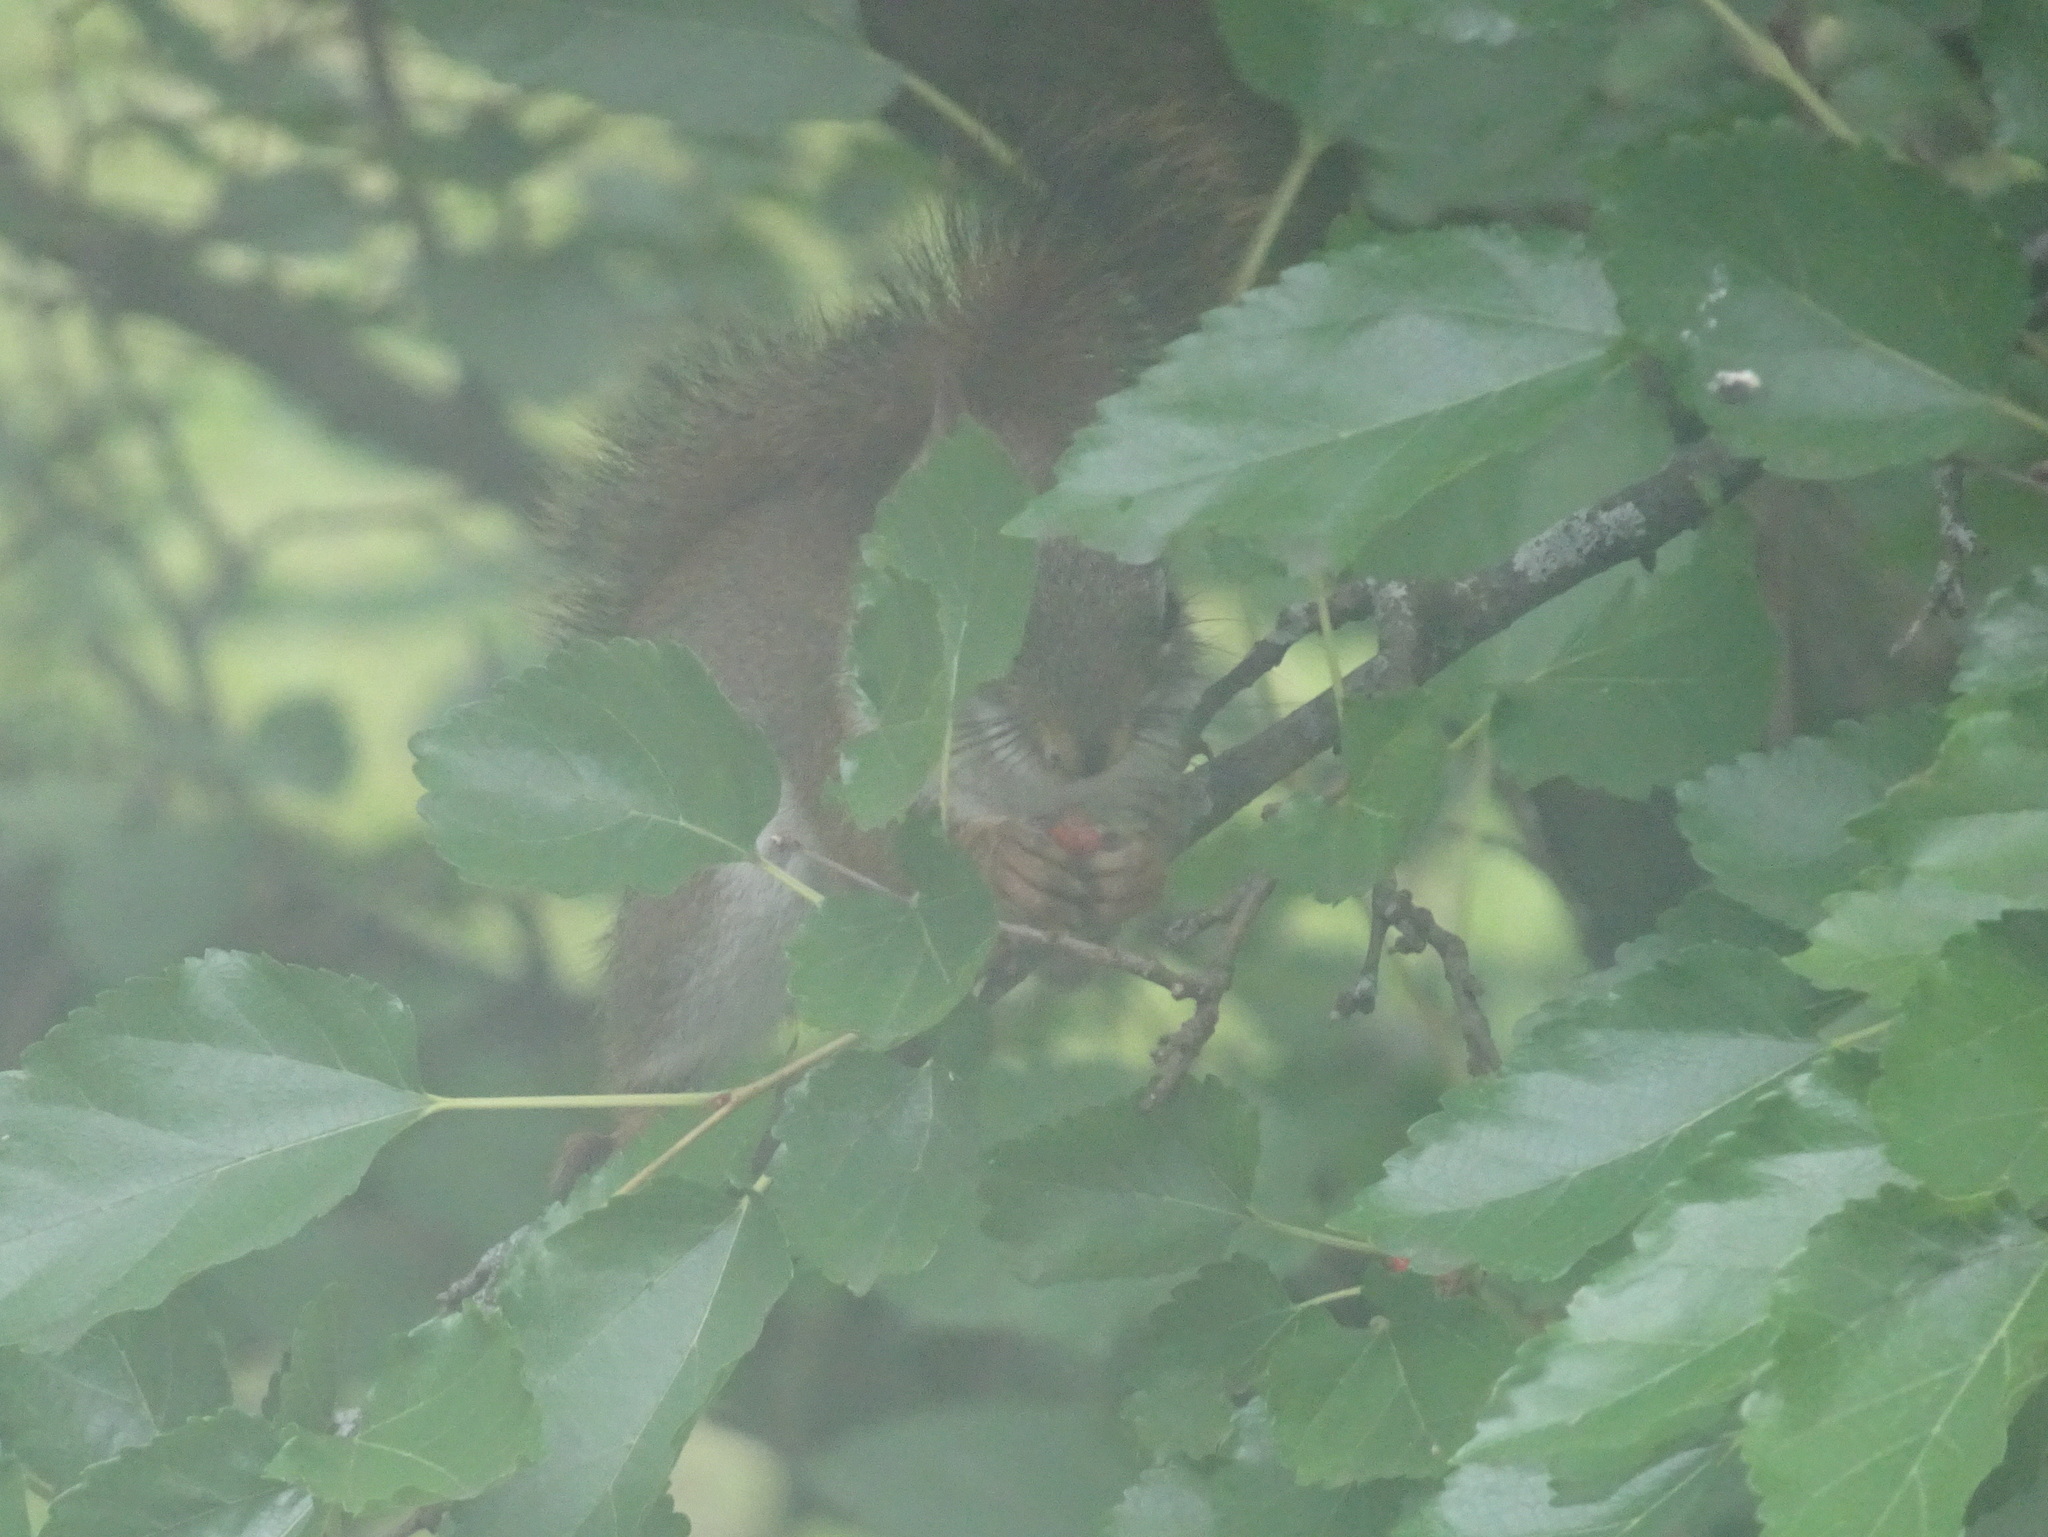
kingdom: Animalia
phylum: Chordata
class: Mammalia
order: Rodentia
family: Sciuridae
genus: Tamiasciurus
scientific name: Tamiasciurus hudsonicus
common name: Red squirrel
